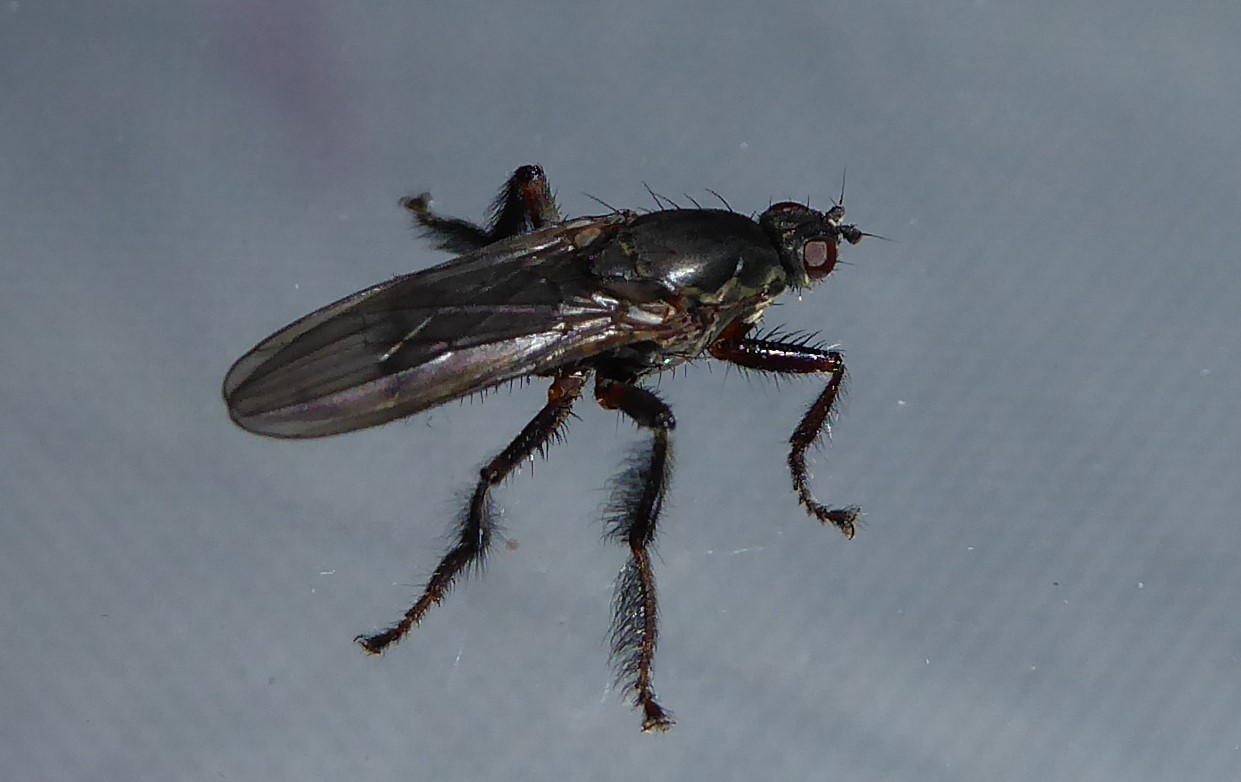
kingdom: Animalia
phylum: Arthropoda
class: Insecta
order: Diptera
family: Coelopidae
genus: Chaetocoelopa
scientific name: Chaetocoelopa littoralis
